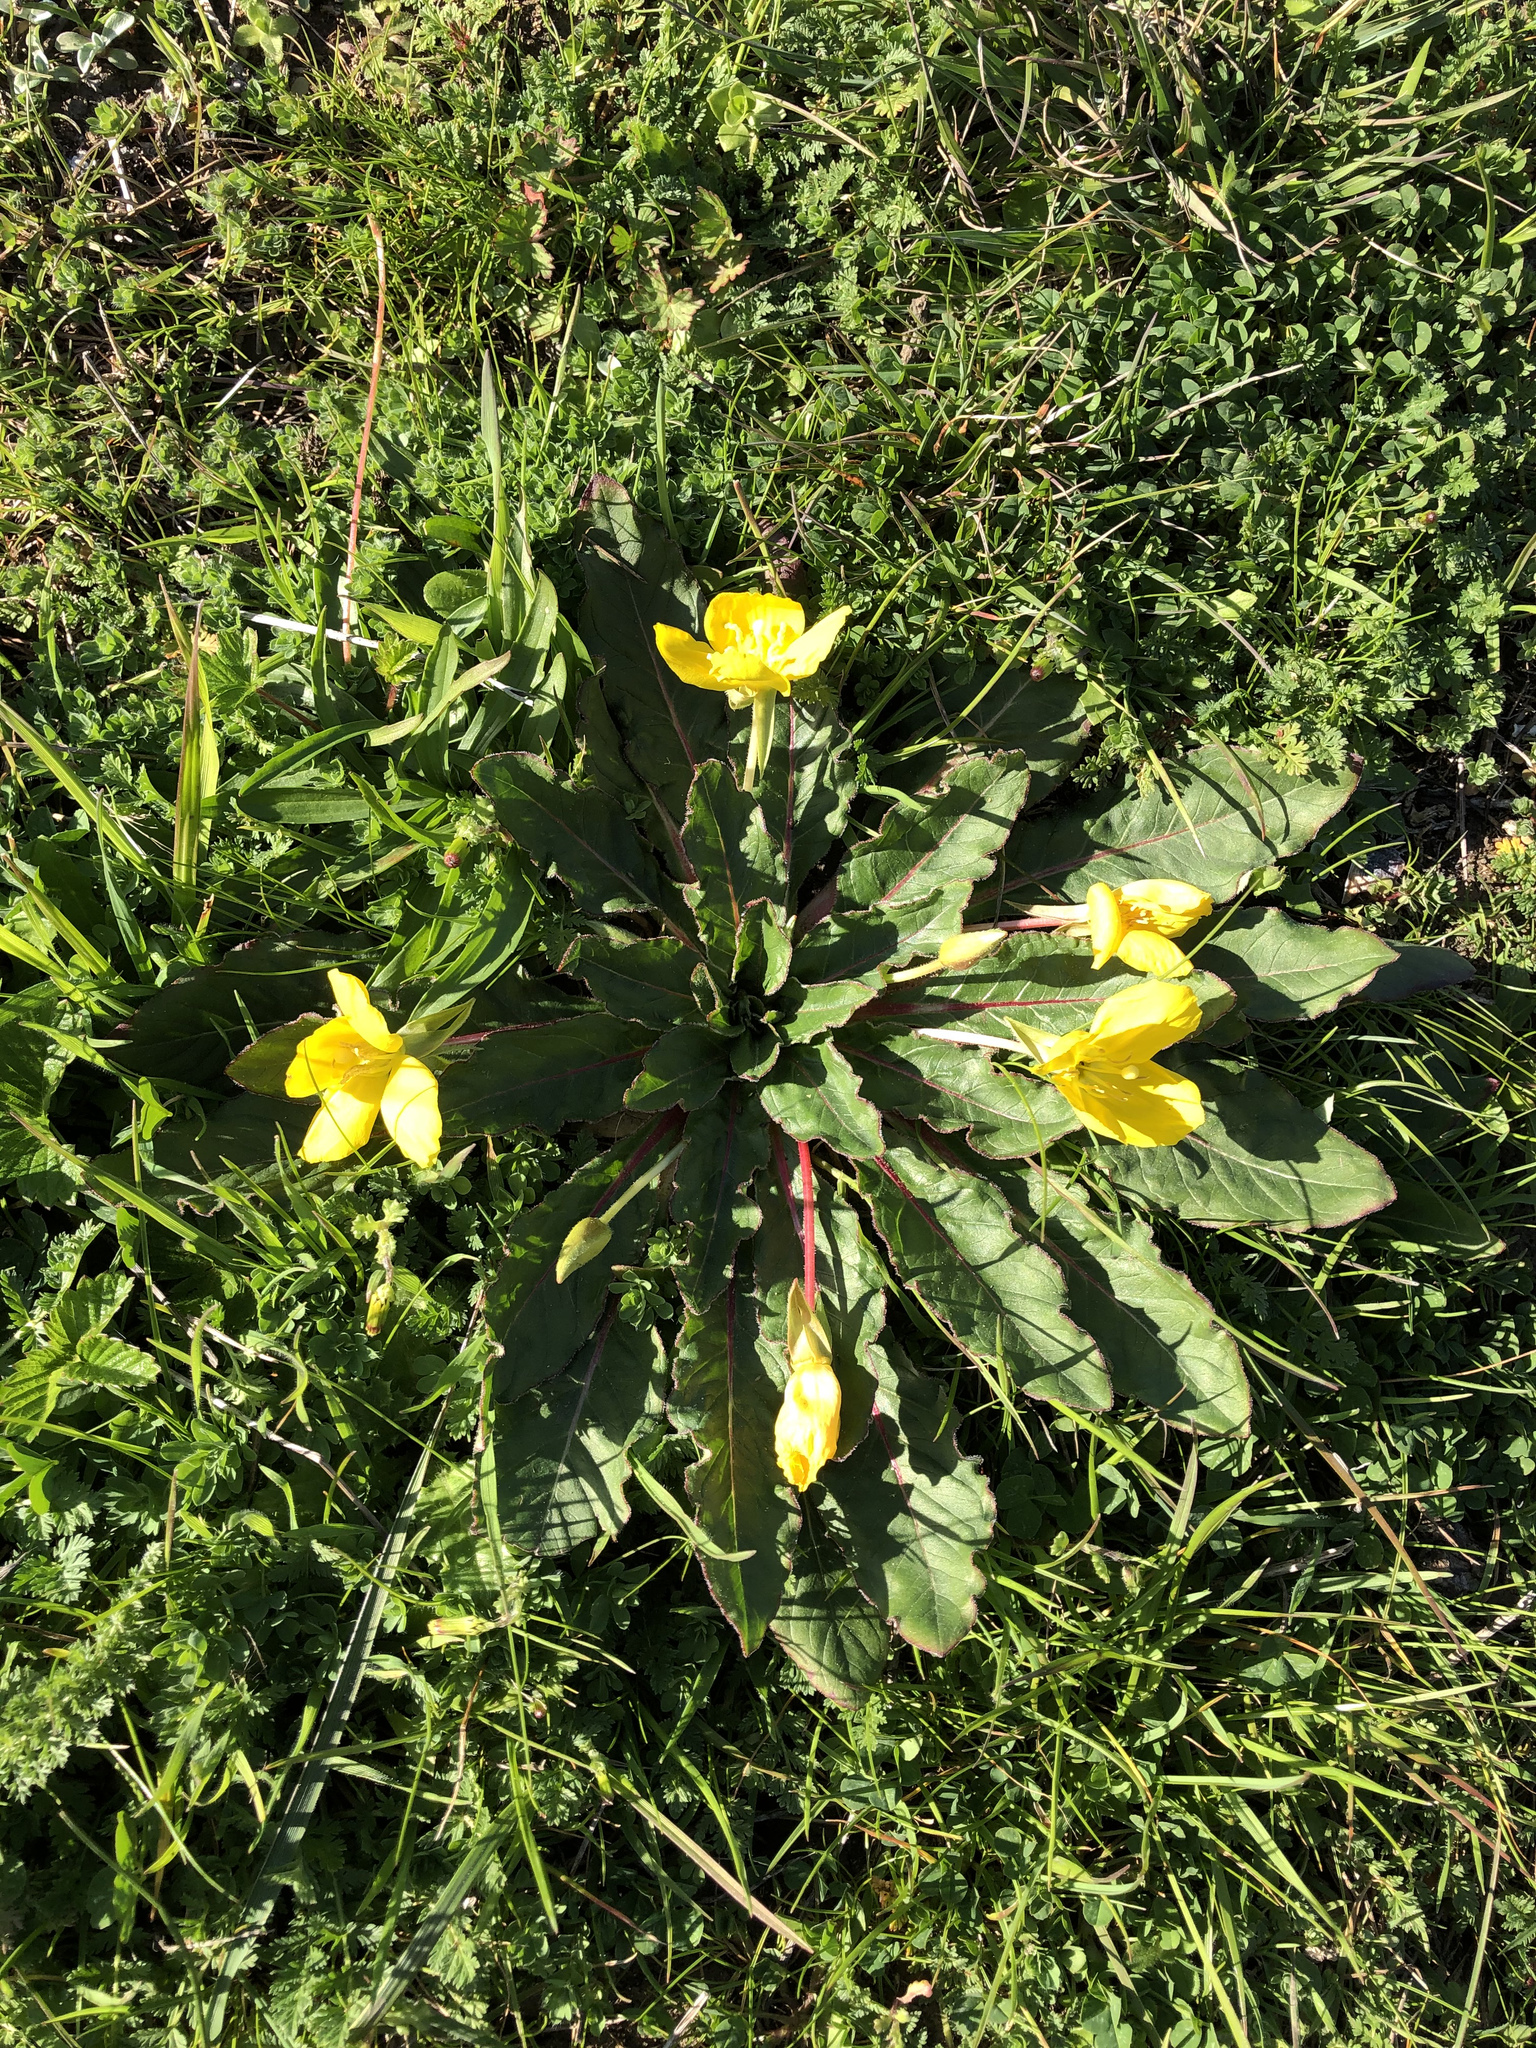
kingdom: Plantae
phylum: Tracheophyta
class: Magnoliopsida
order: Myrtales
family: Onagraceae
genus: Taraxia
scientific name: Taraxia ovata
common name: Goldeneggs
